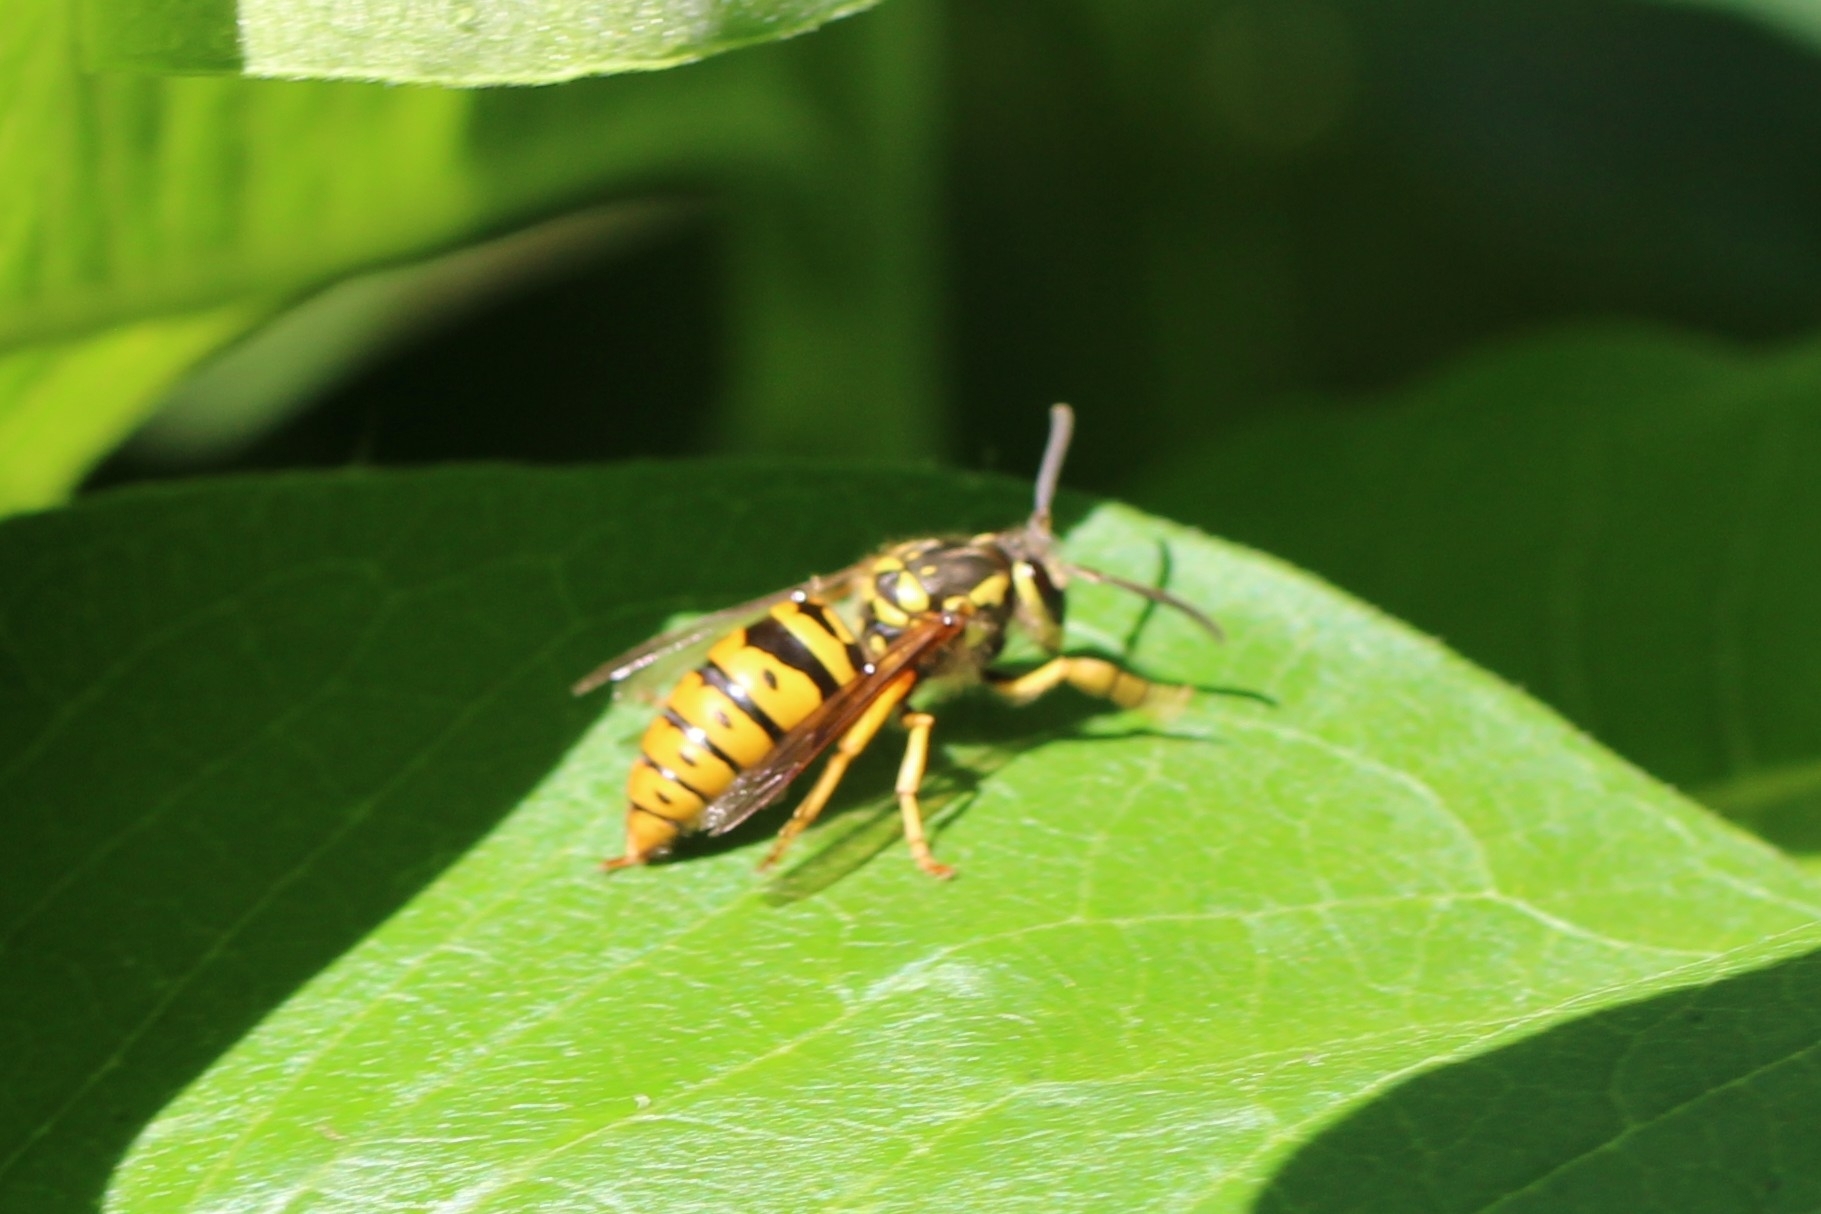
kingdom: Animalia
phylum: Arthropoda
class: Insecta
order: Hymenoptera
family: Vespidae
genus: Vespula
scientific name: Vespula maculifrons
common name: Eastern yellowjacket
